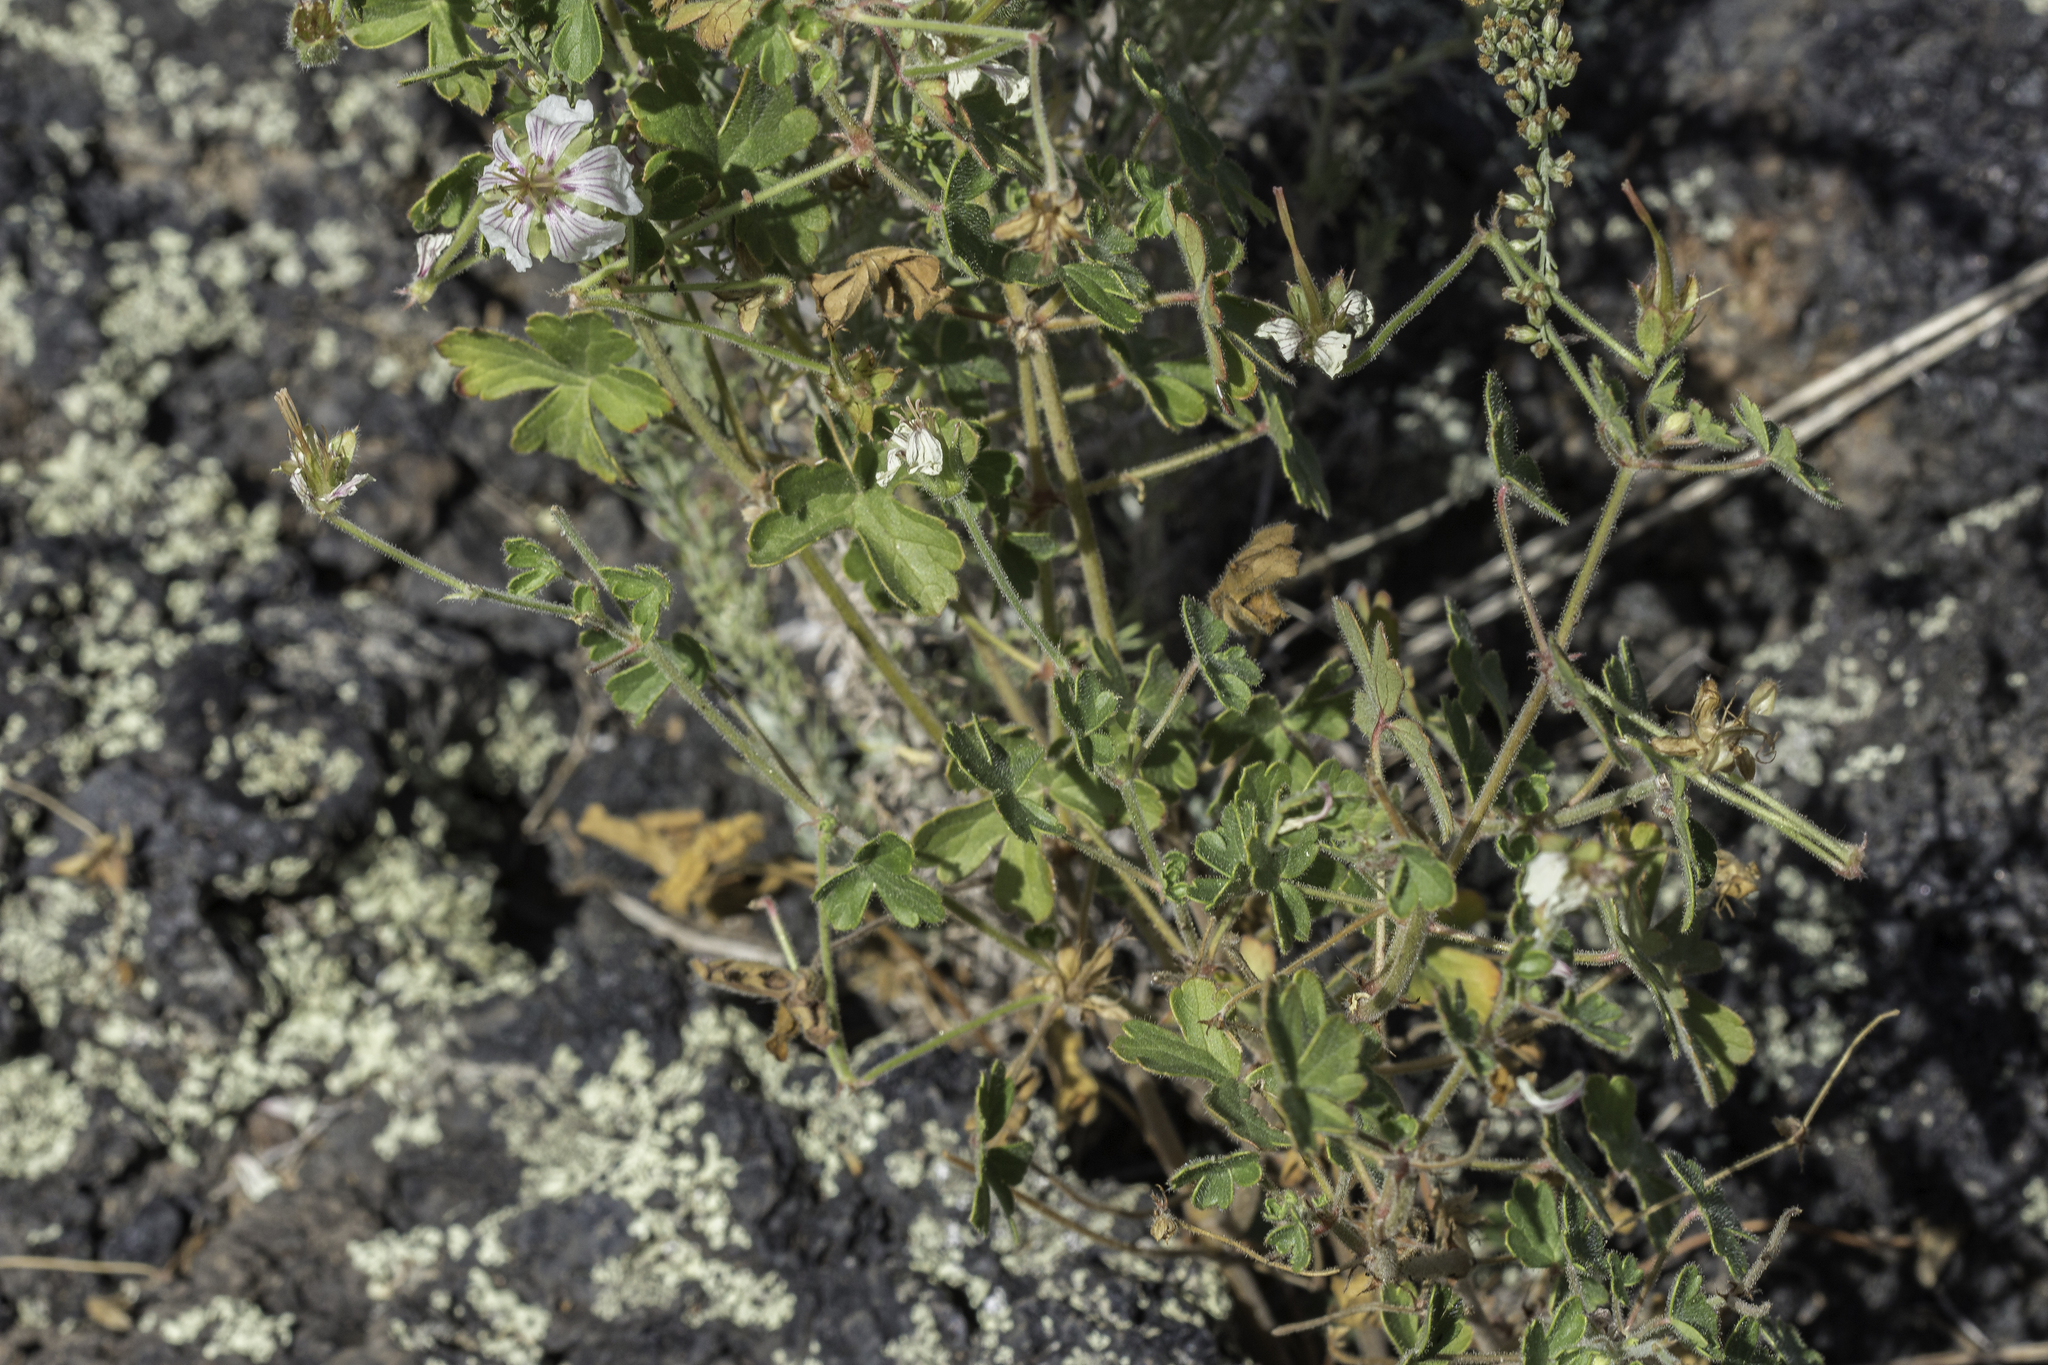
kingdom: Plantae
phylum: Tracheophyta
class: Magnoliopsida
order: Geraniales
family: Geraniaceae
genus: Geranium
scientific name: Geranium lentum
